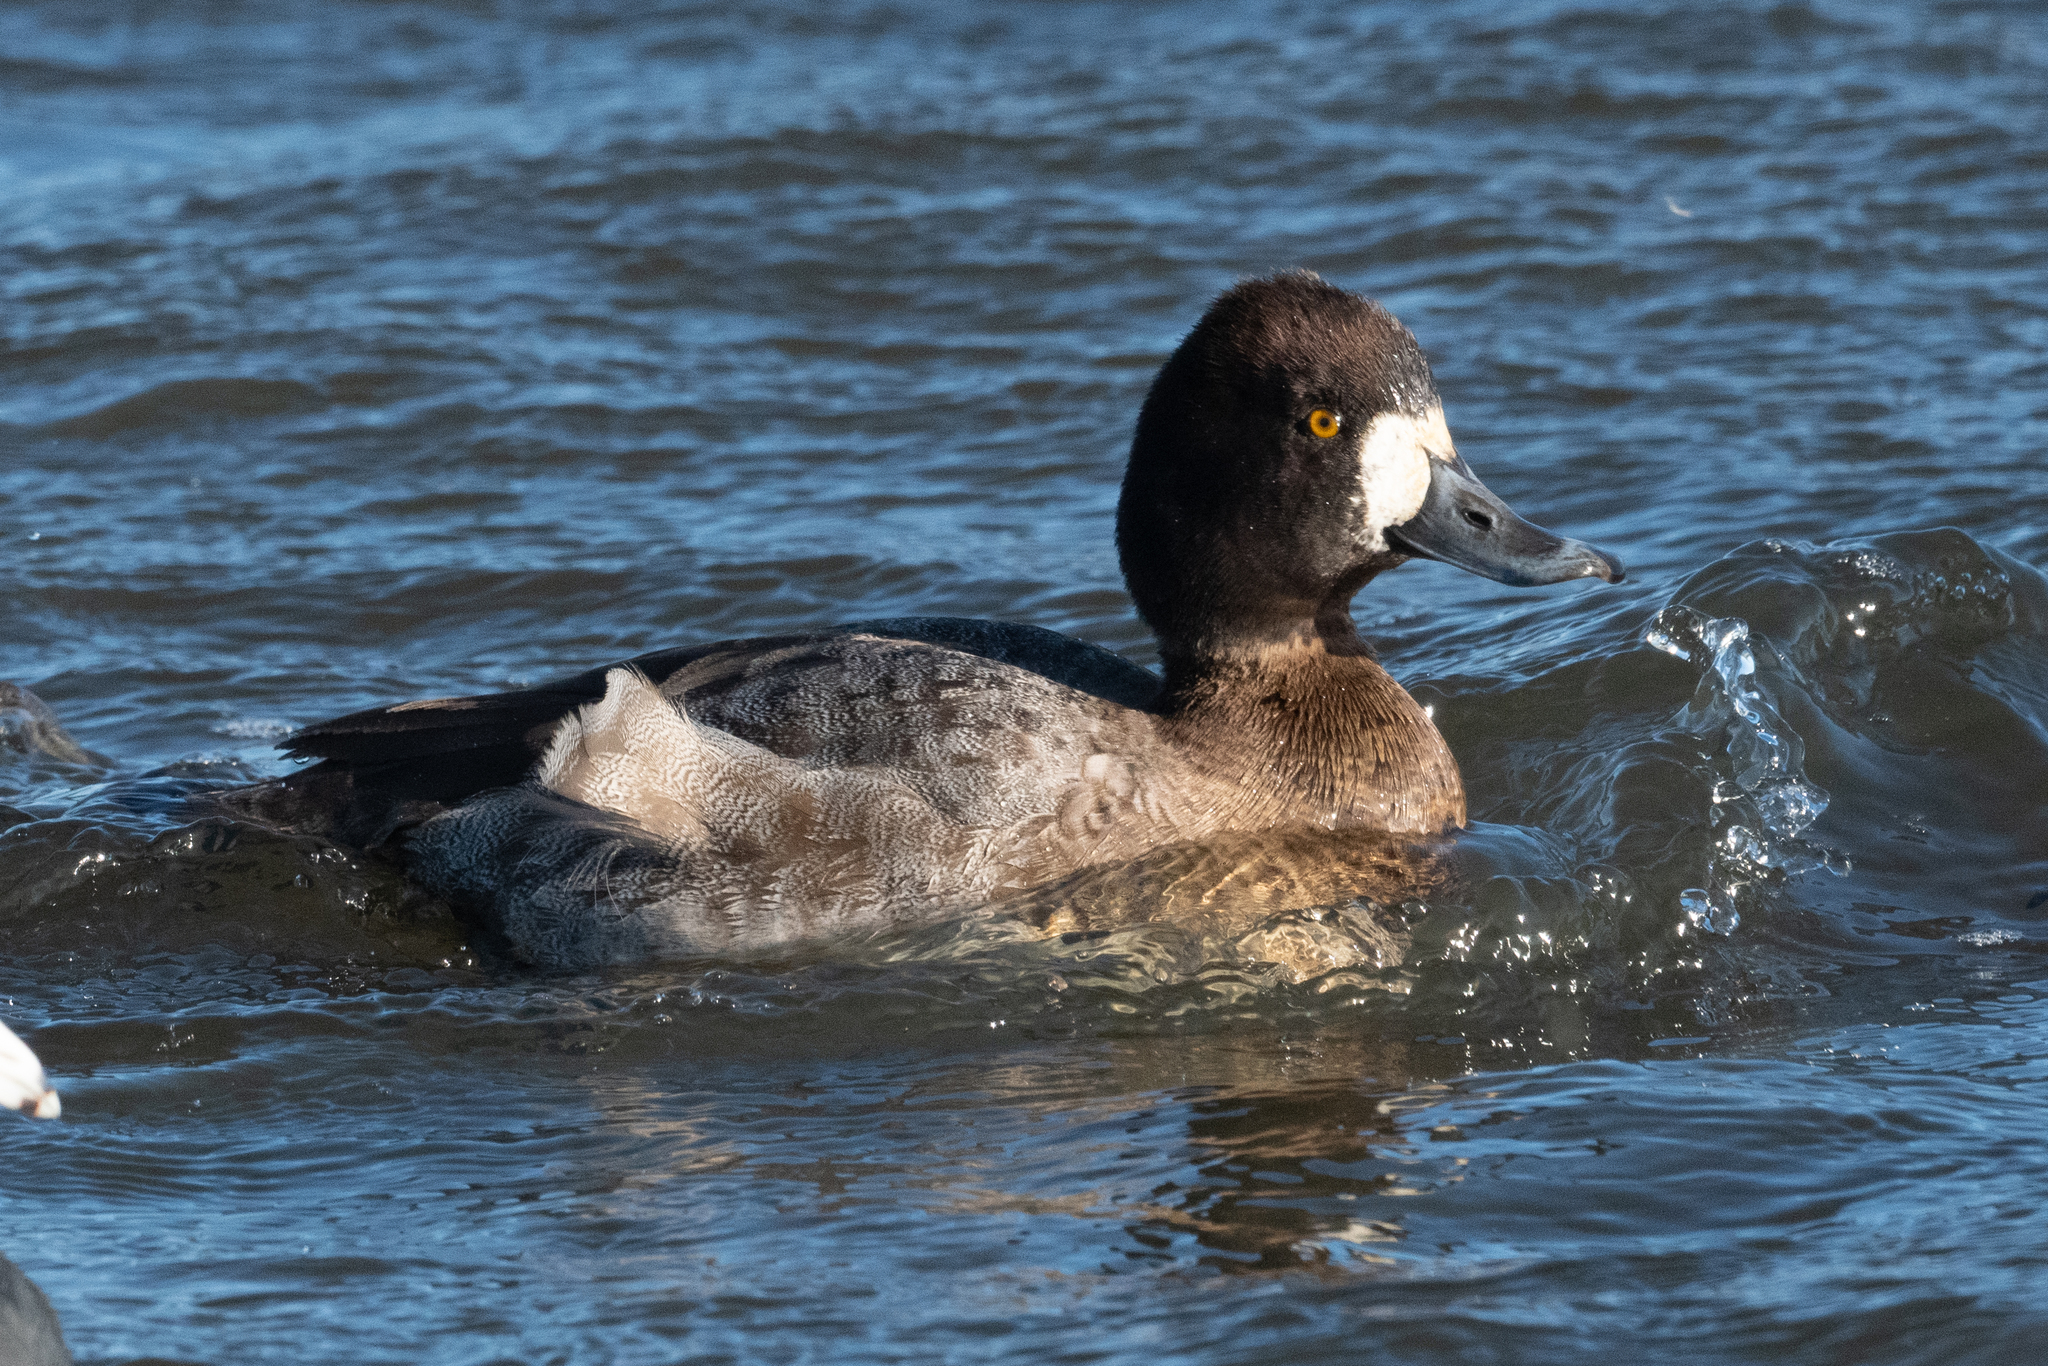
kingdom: Animalia
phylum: Chordata
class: Aves
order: Anseriformes
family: Anatidae
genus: Aythya
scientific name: Aythya affinis
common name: Lesser scaup
